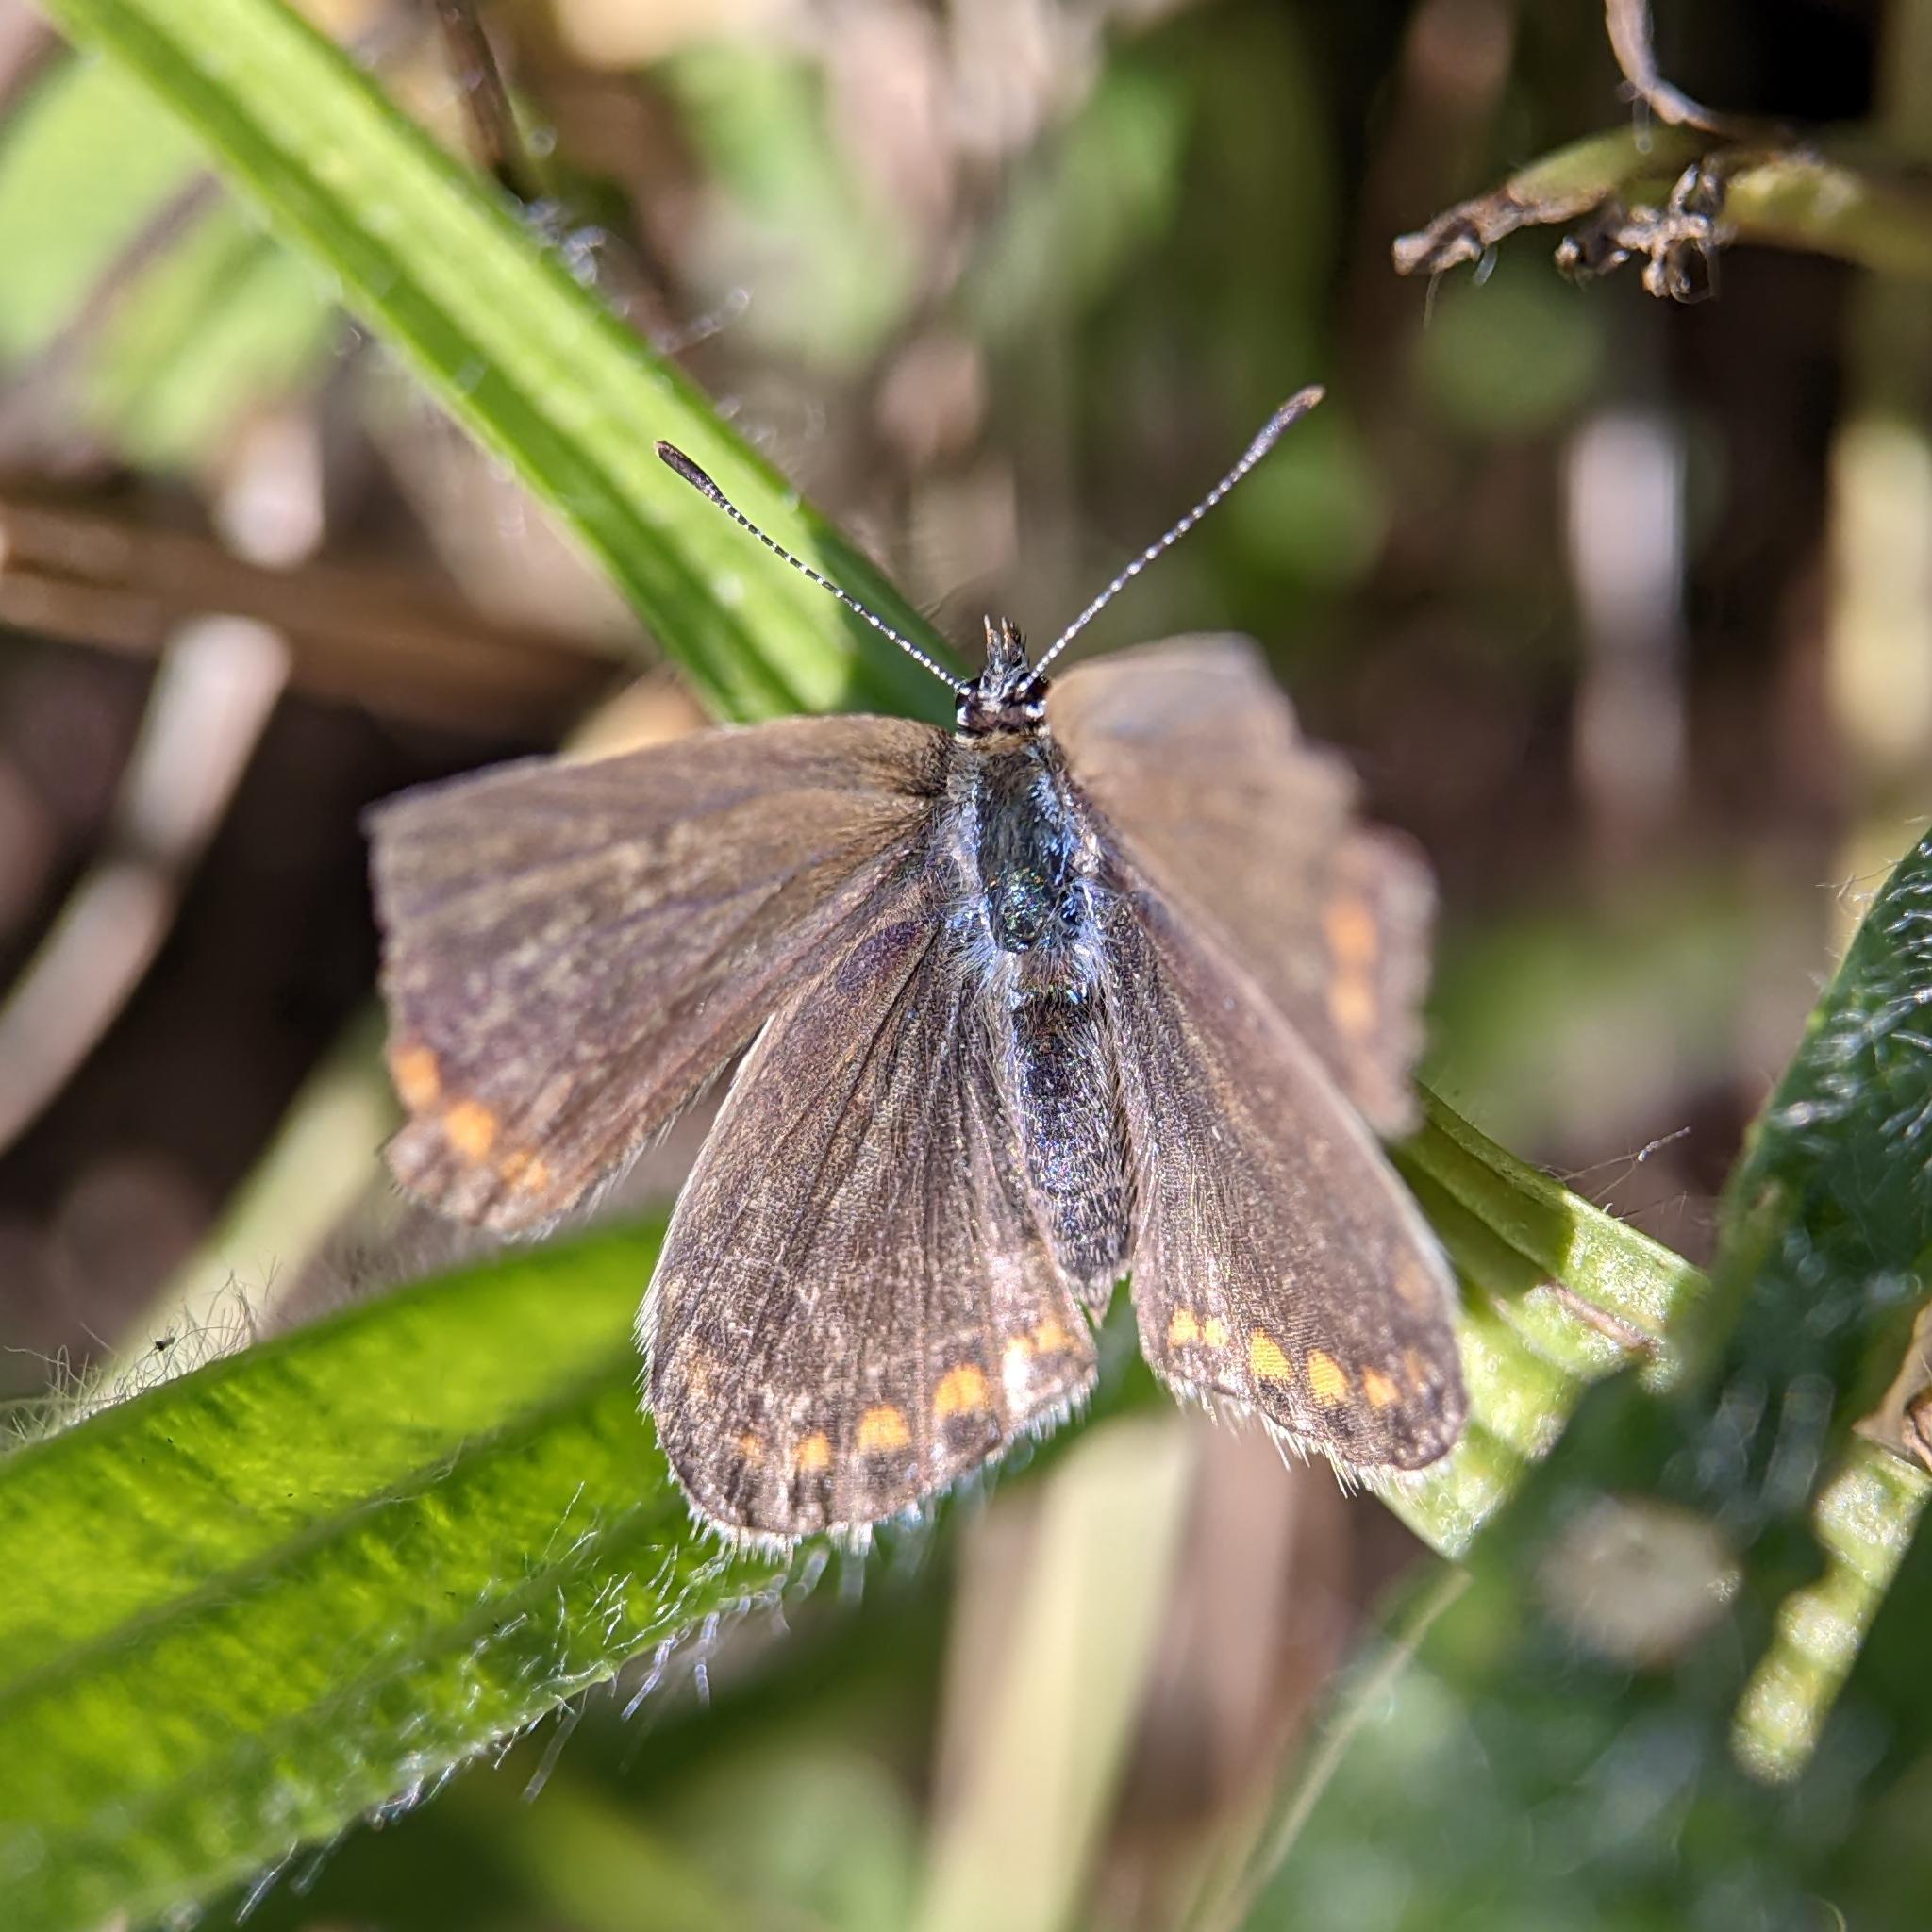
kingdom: Animalia
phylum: Arthropoda
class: Insecta
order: Lepidoptera
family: Lycaenidae
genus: Polyommatus
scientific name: Polyommatus icarus
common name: Common blue
